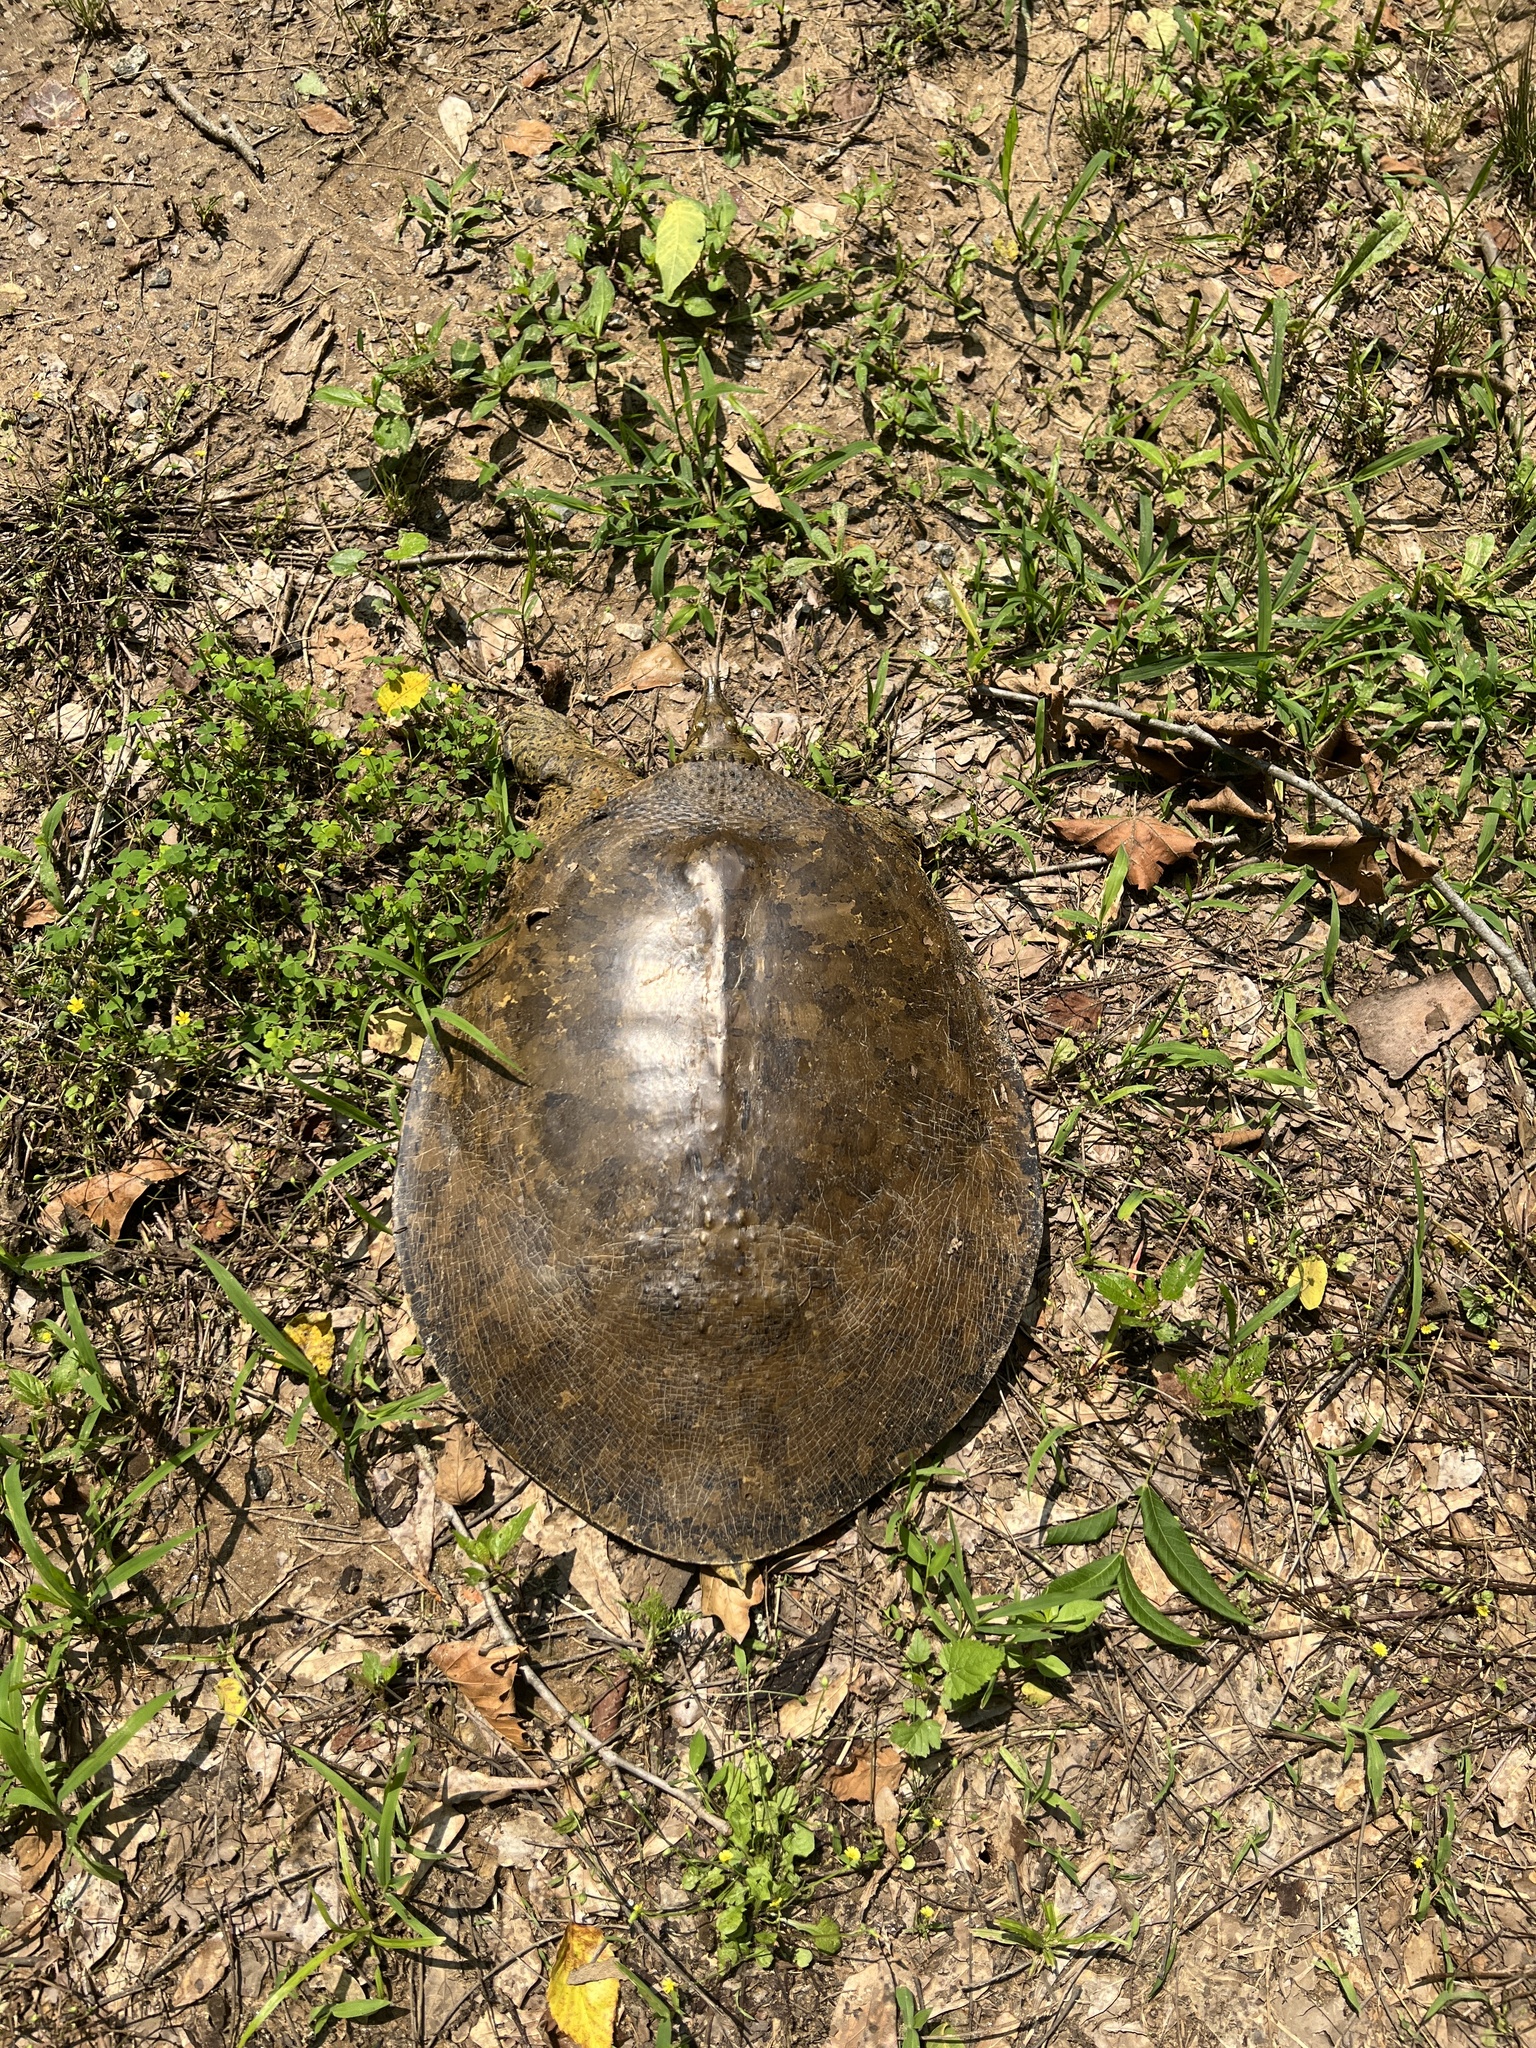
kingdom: Animalia
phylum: Chordata
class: Testudines
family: Trionychidae
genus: Apalone
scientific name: Apalone spinifera
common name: Spiny softshell turtle
